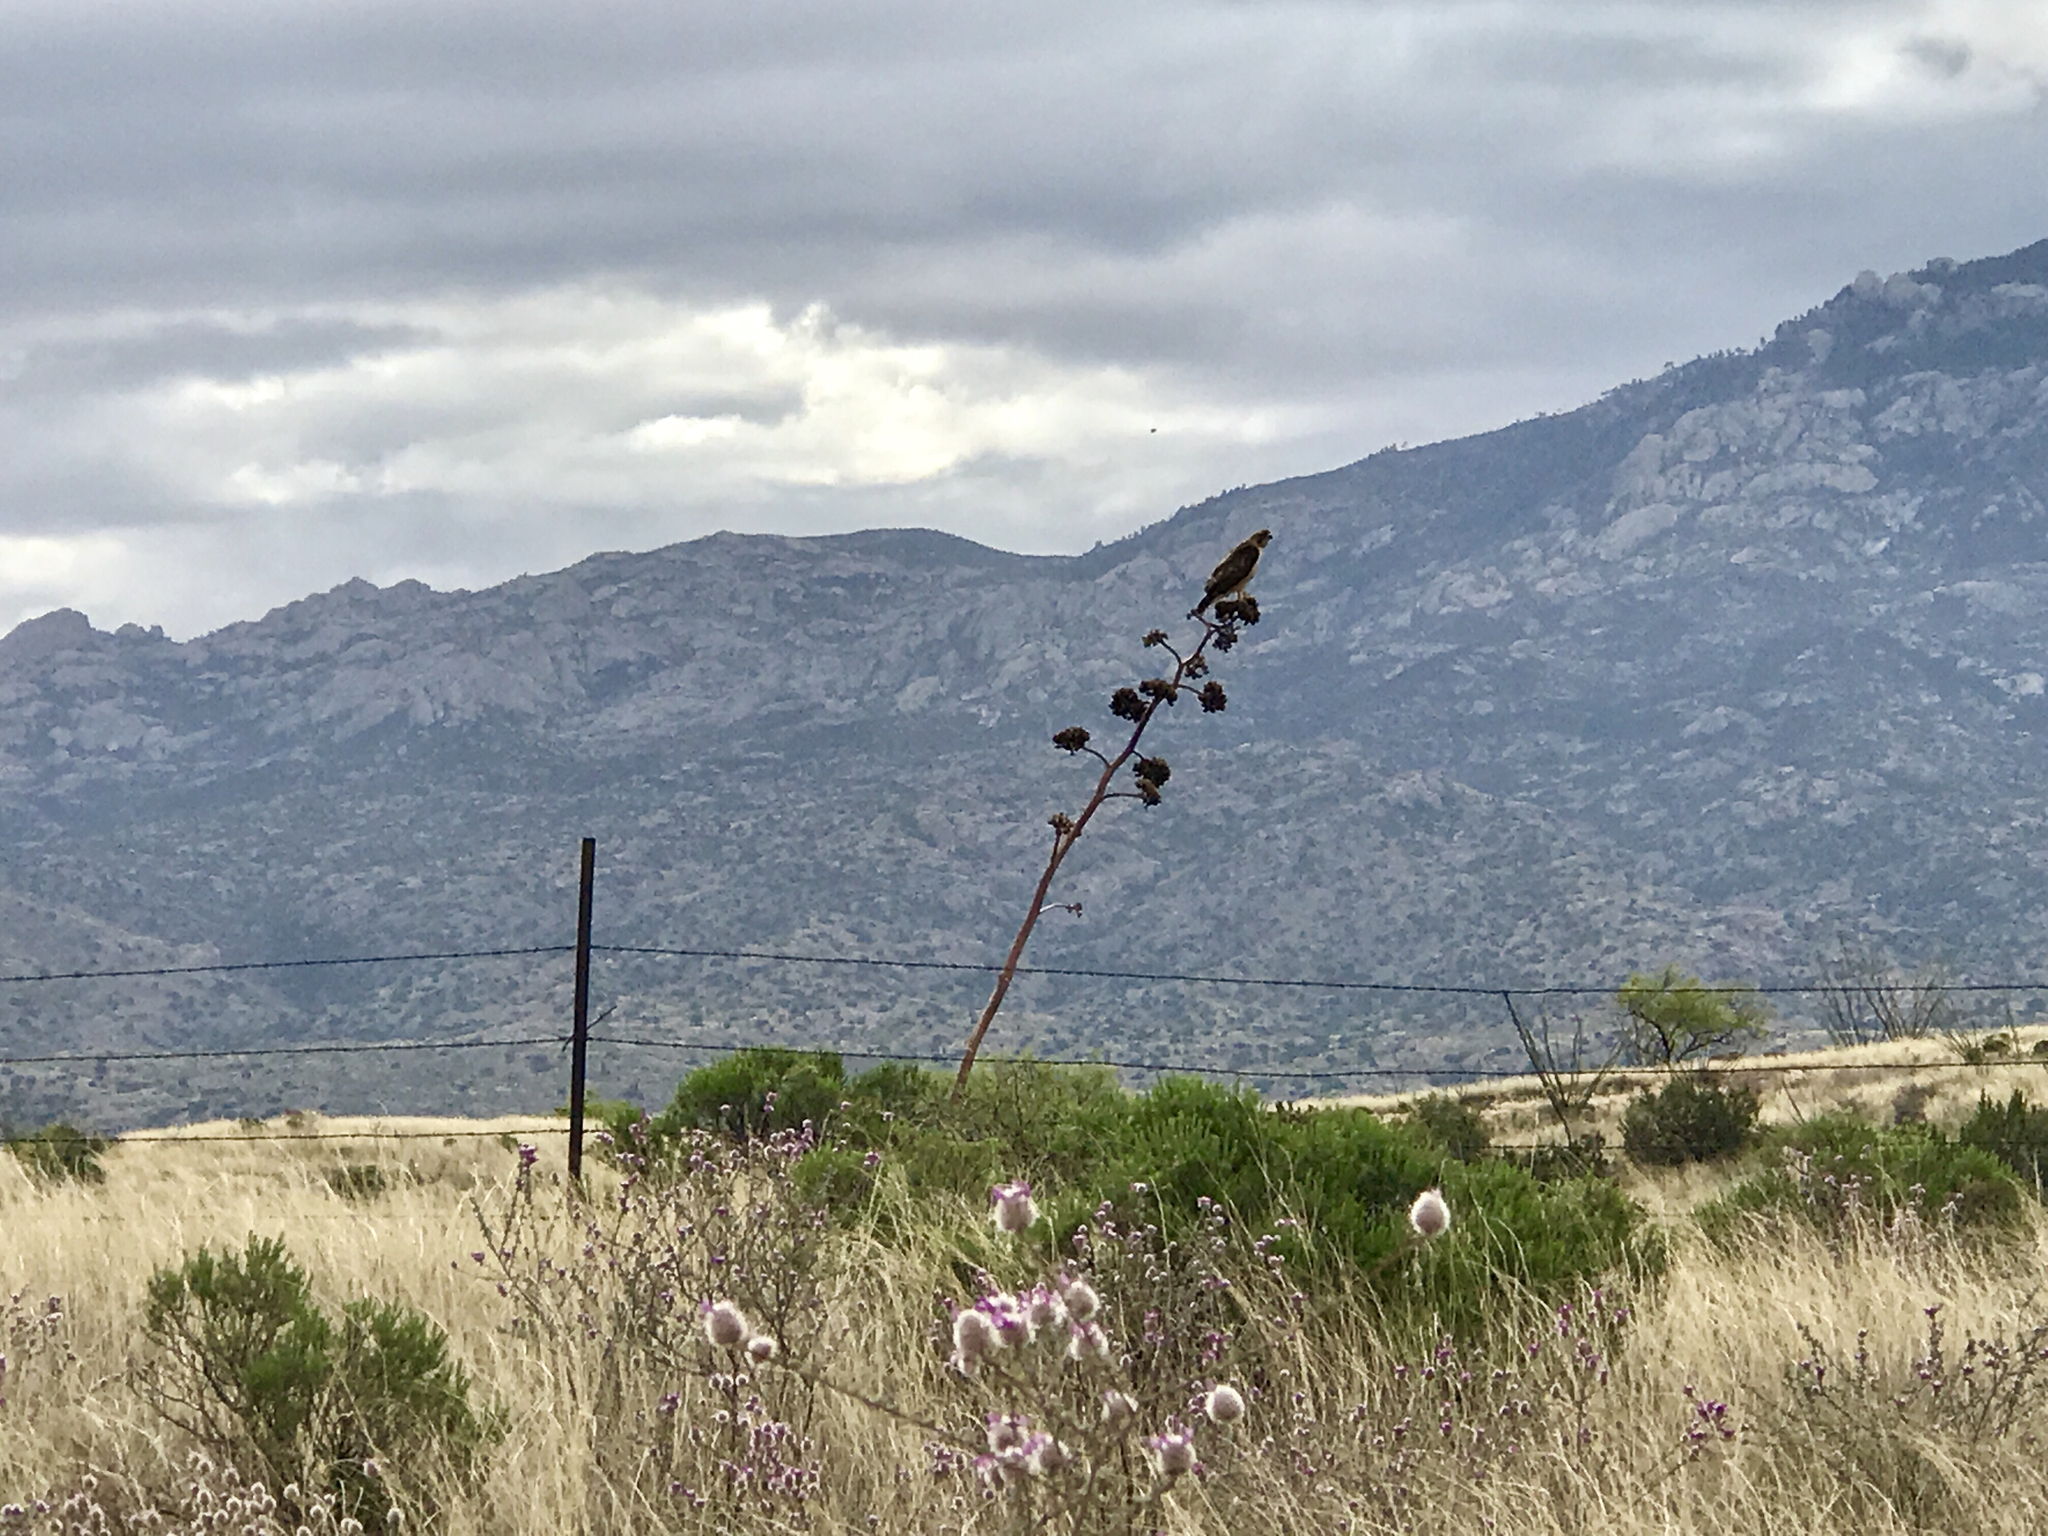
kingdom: Plantae
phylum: Tracheophyta
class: Liliopsida
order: Asparagales
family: Asparagaceae
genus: Agave
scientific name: Agave palmeri
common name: Palmer agave
